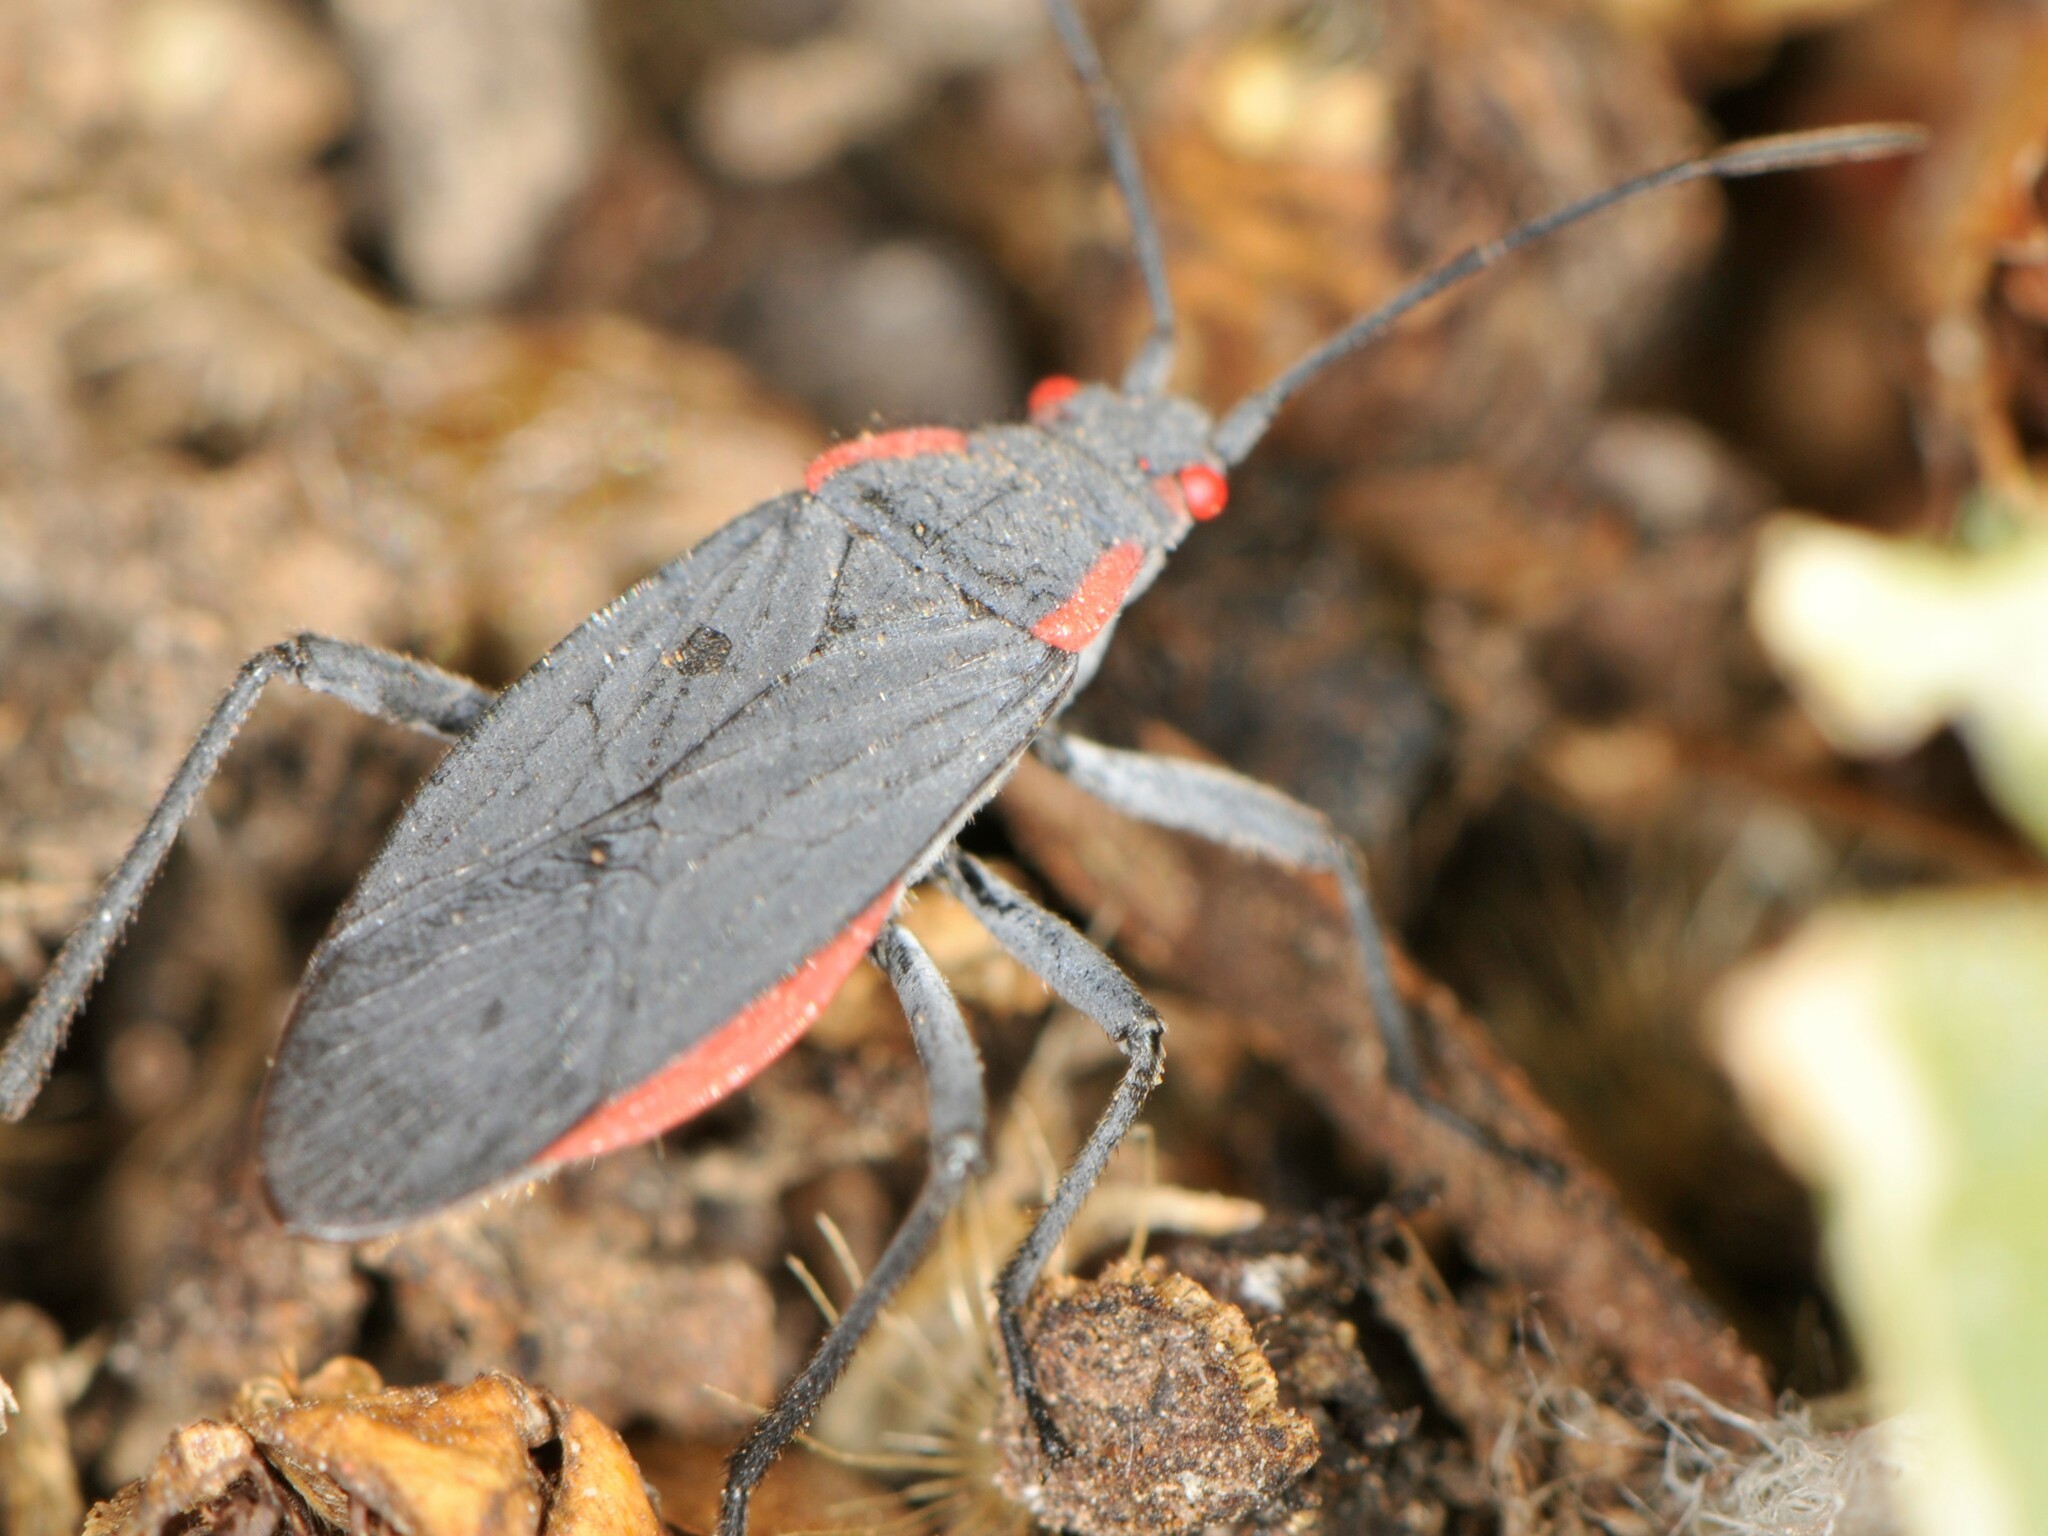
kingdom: Animalia
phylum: Arthropoda
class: Insecta
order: Hemiptera
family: Rhopalidae
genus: Jadera
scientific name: Jadera haematoloma
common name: Red-shouldered bug
